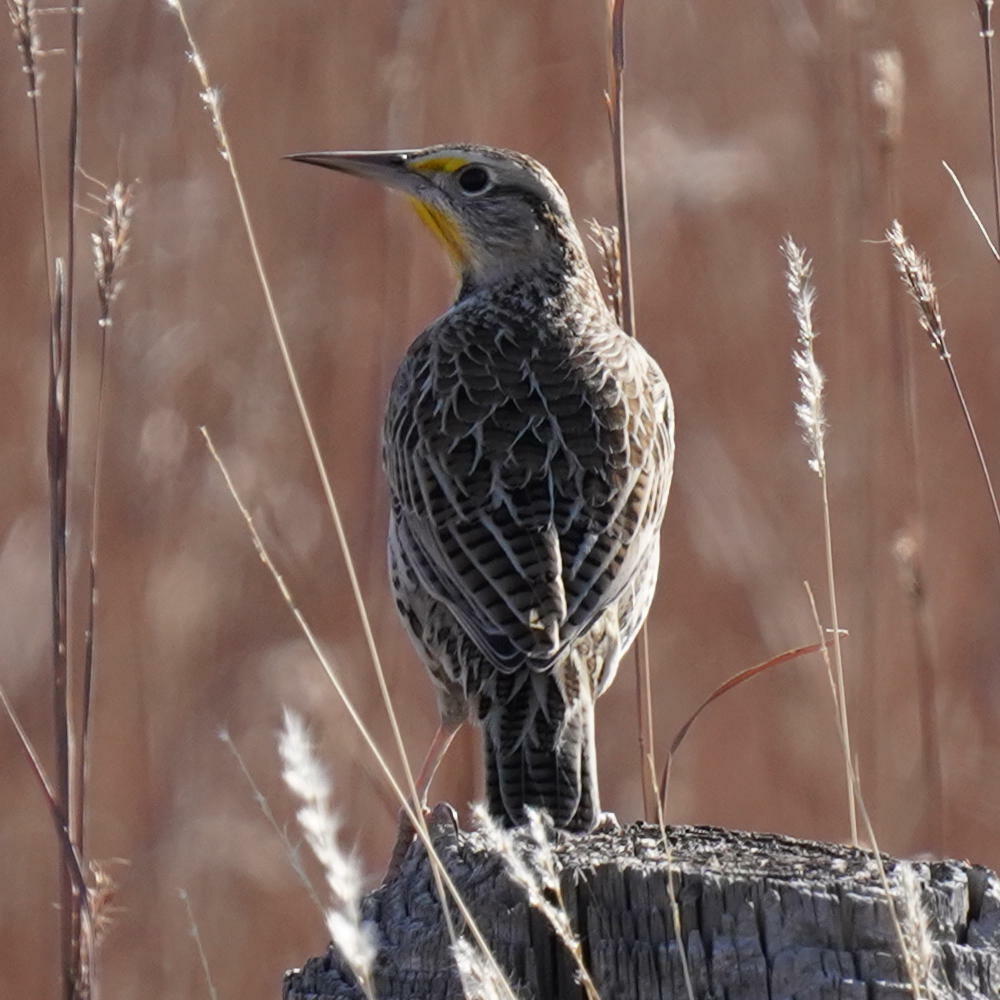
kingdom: Animalia
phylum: Chordata
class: Aves
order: Passeriformes
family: Icteridae
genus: Sturnella
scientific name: Sturnella neglecta
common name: Western meadowlark
